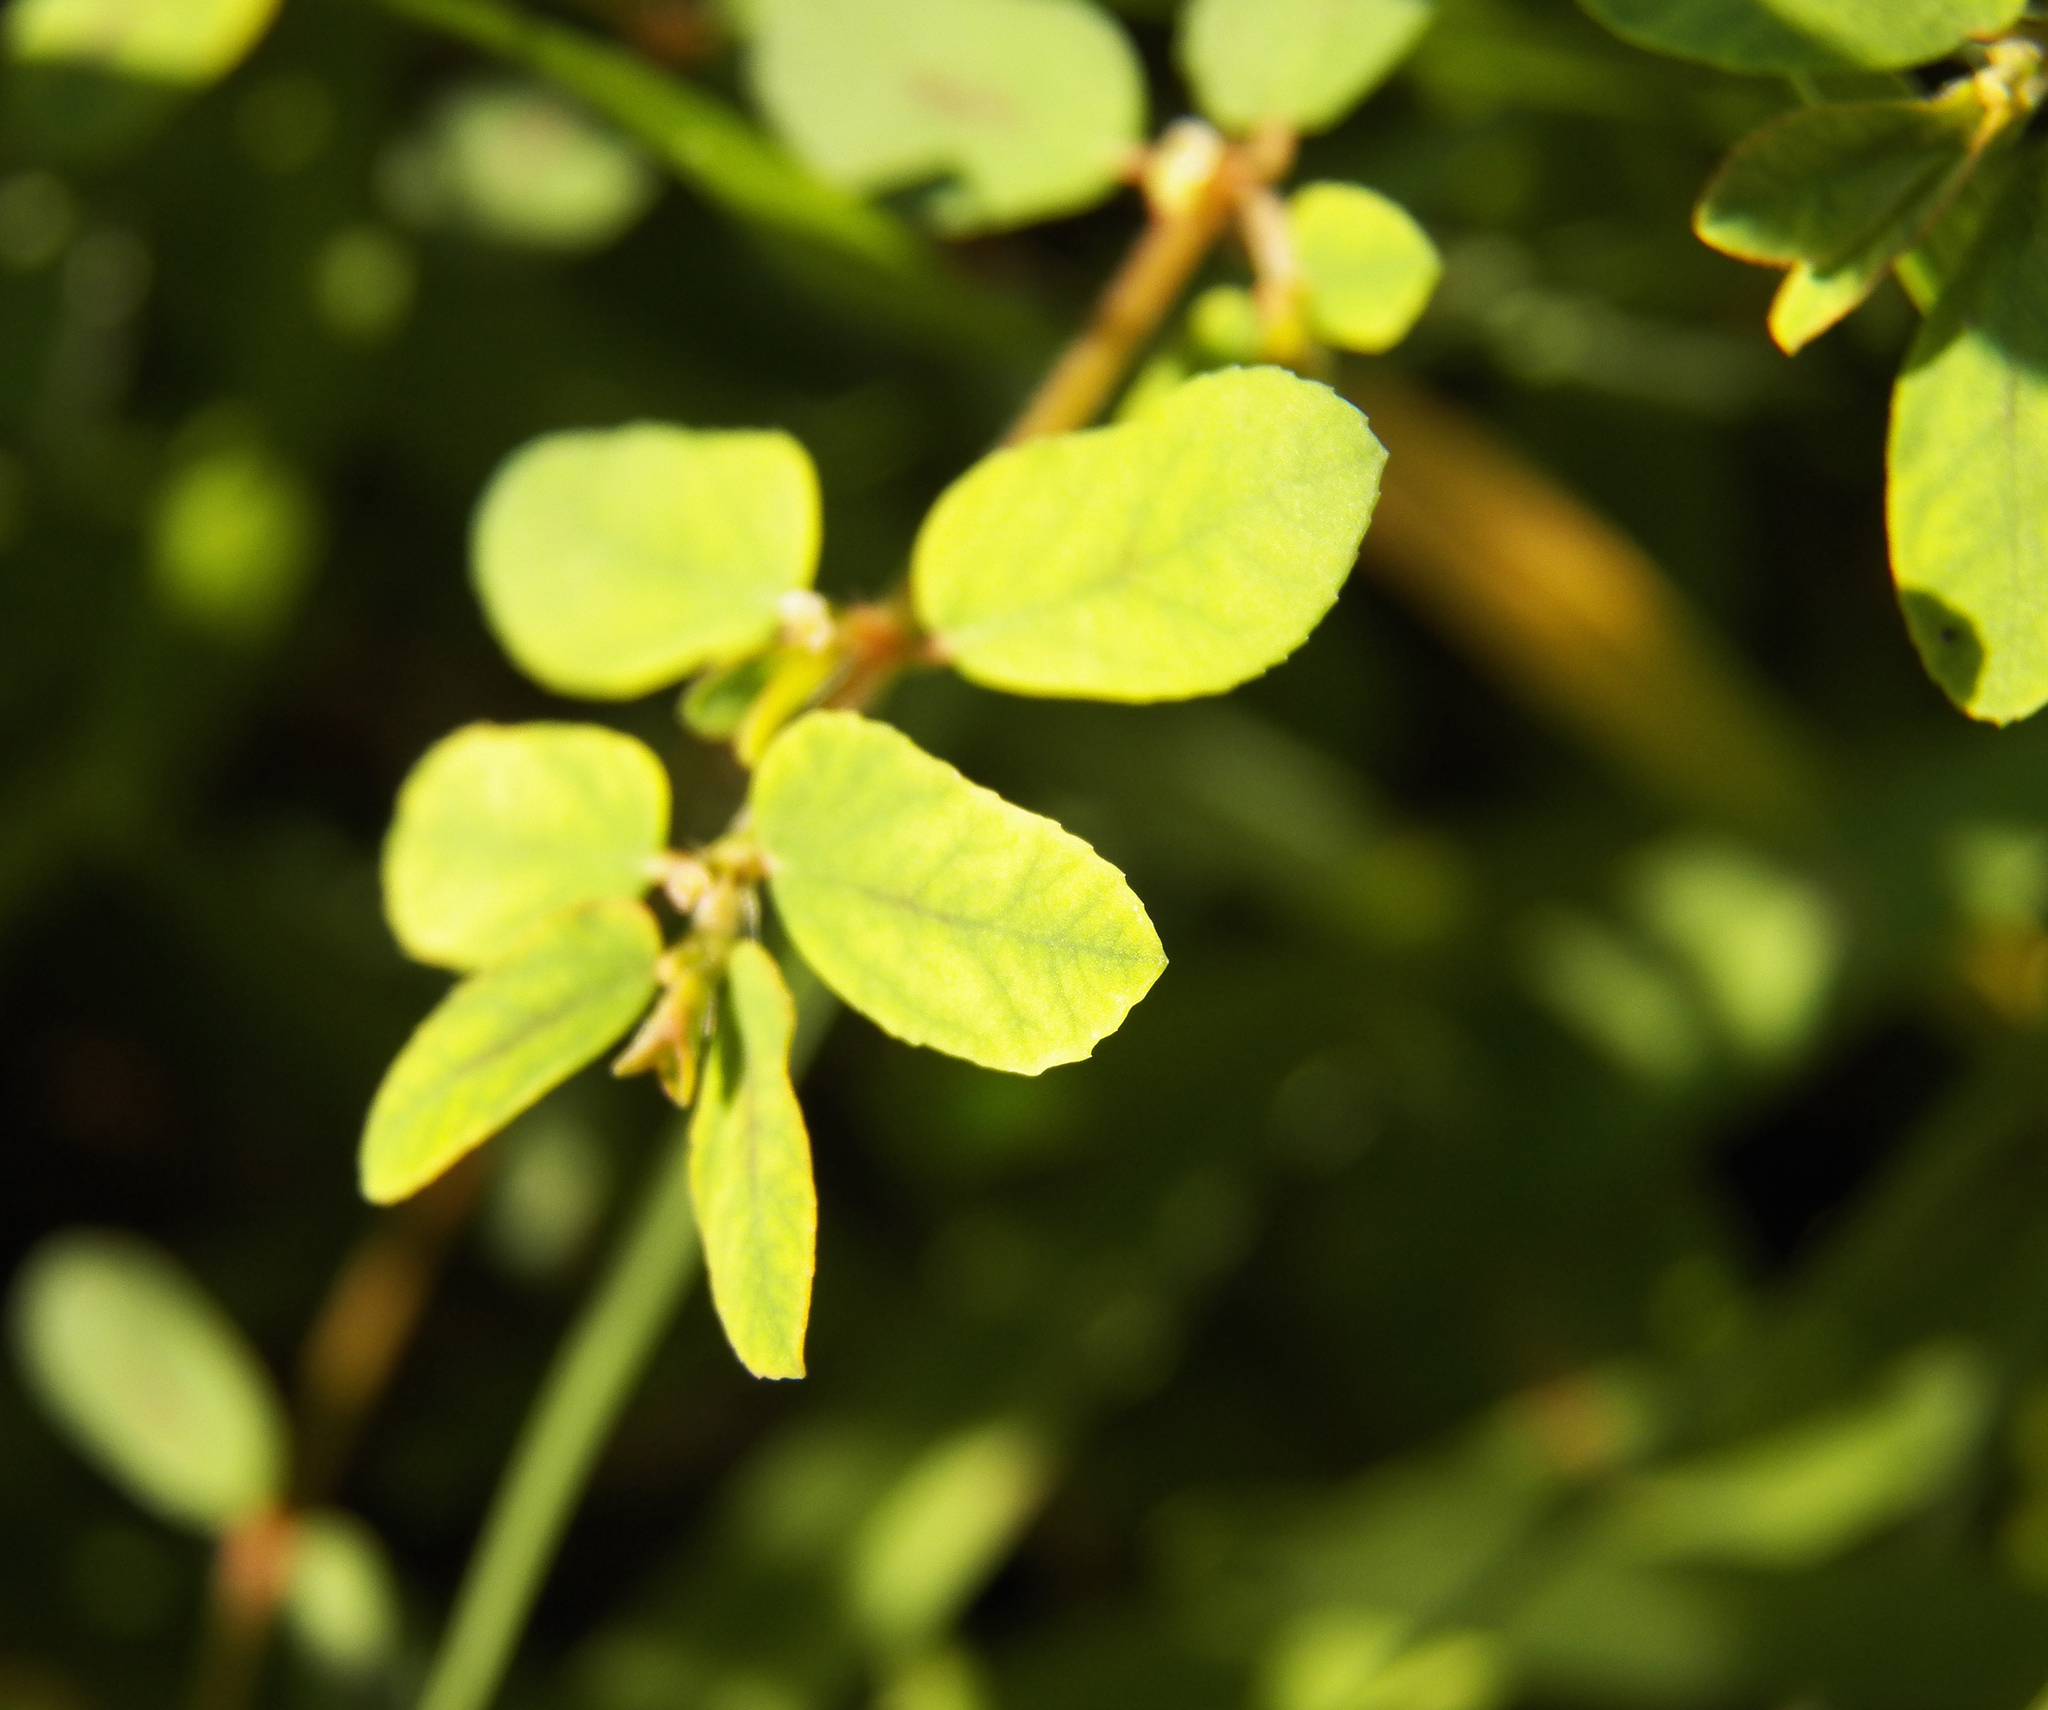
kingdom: Plantae
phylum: Tracheophyta
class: Magnoliopsida
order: Malpighiales
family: Euphorbiaceae
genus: Euphorbia
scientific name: Euphorbia maculata
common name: Spotted spurge
